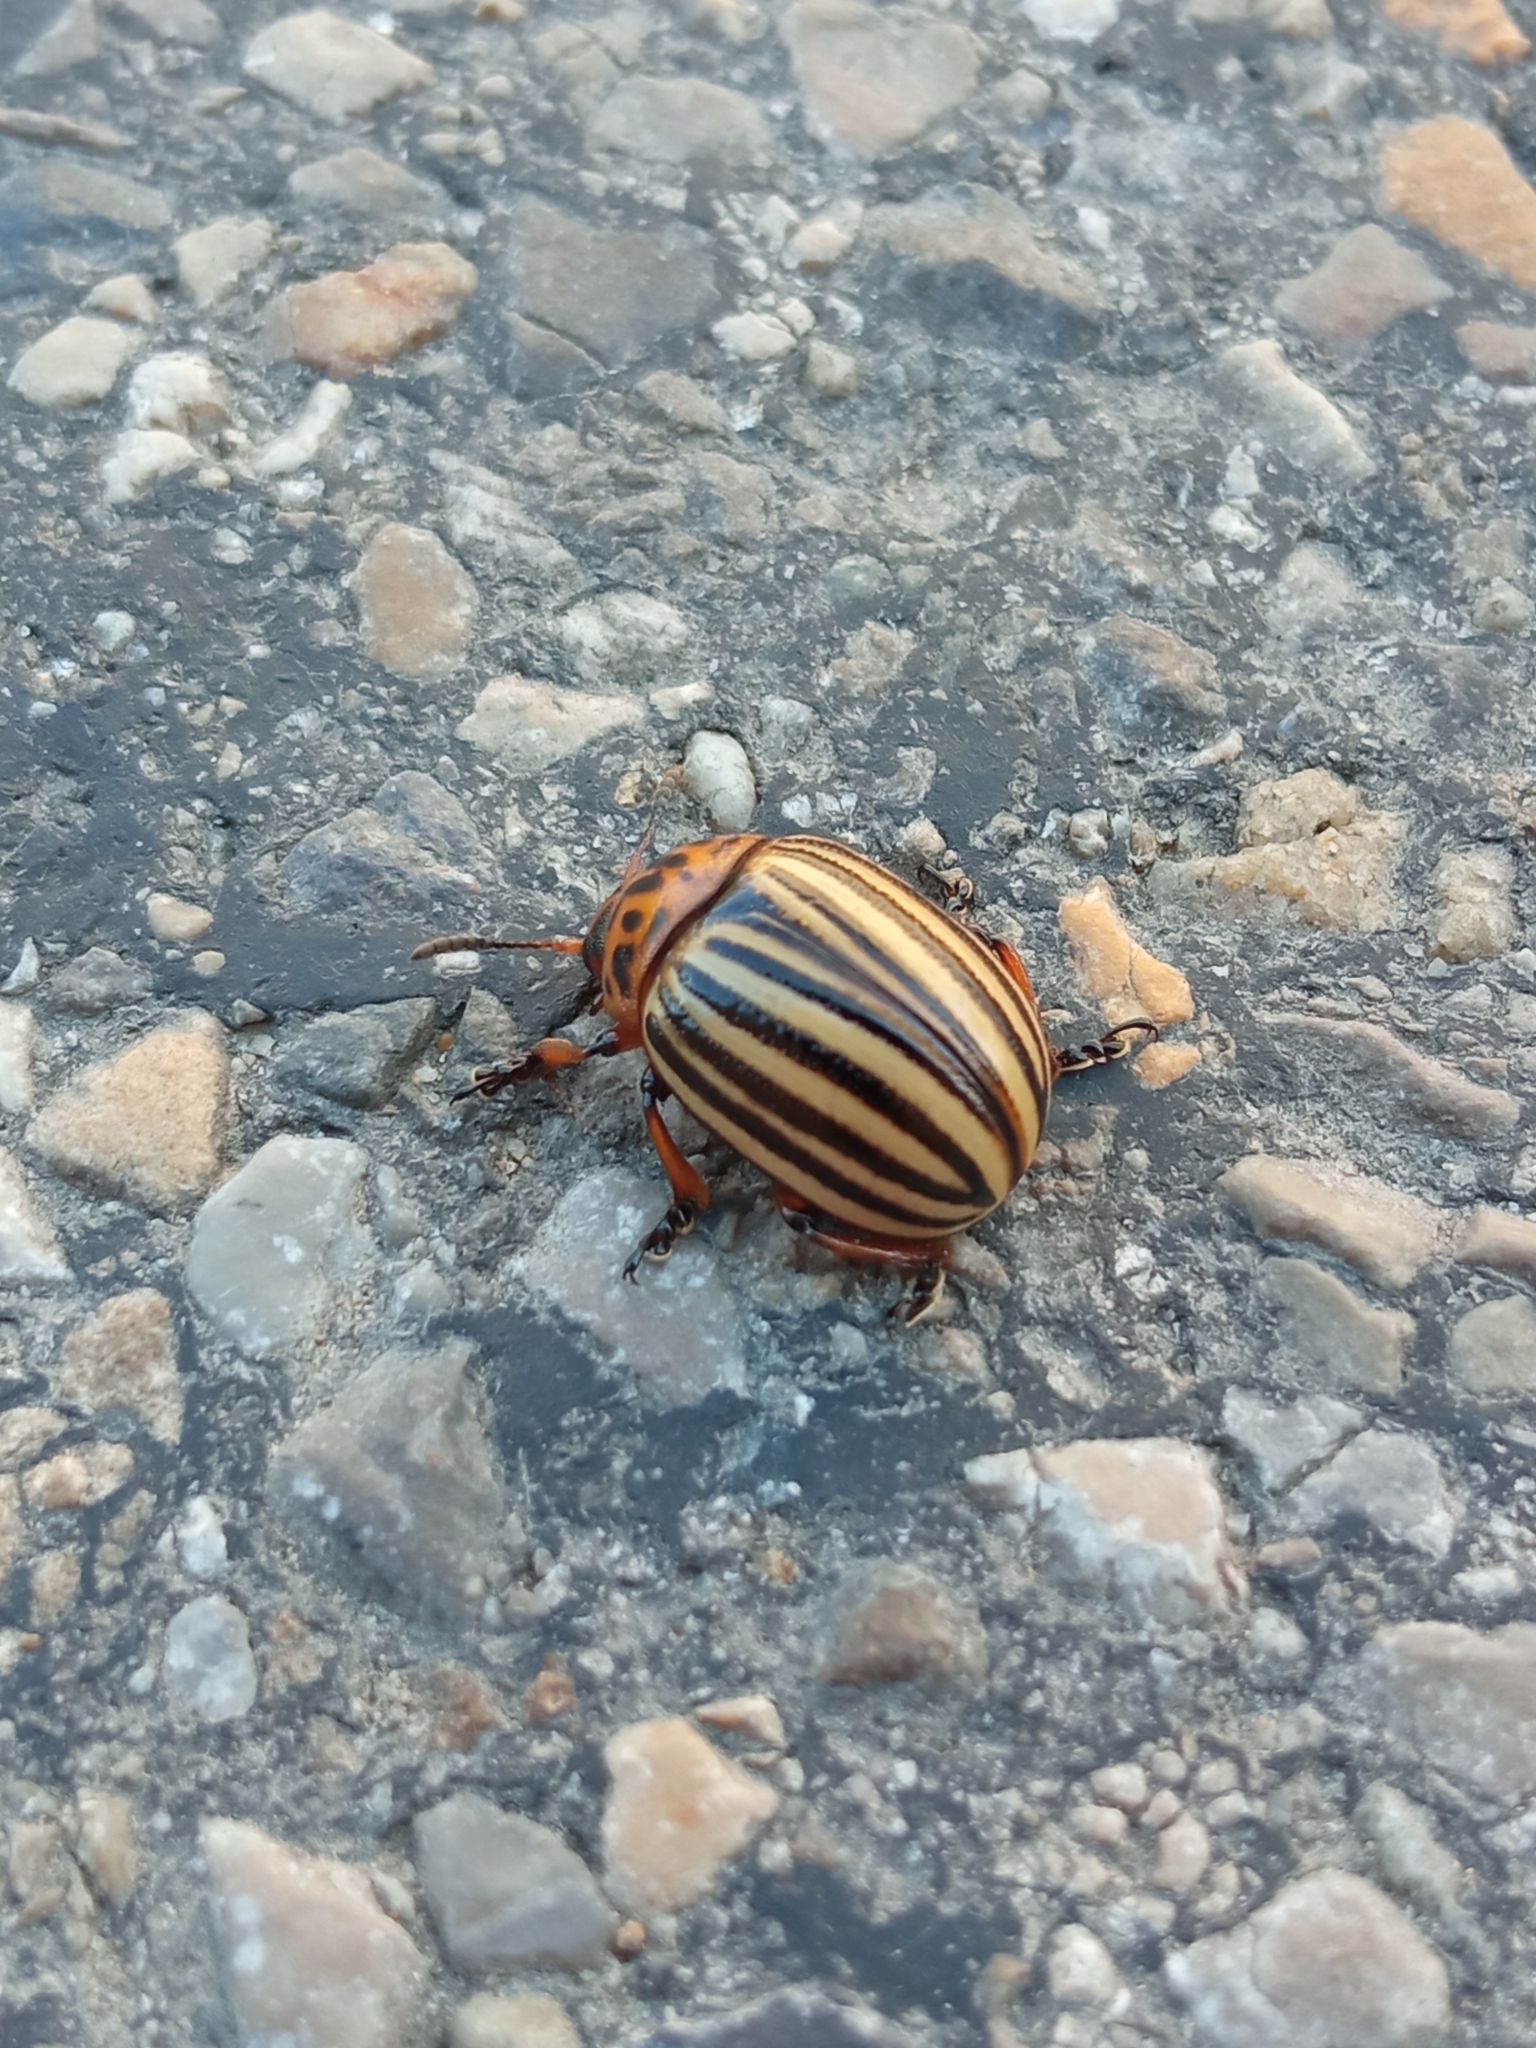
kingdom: Animalia
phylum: Arthropoda
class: Insecta
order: Coleoptera
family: Chrysomelidae
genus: Leptinotarsa
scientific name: Leptinotarsa decemlineata
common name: Colorado potato beetle
